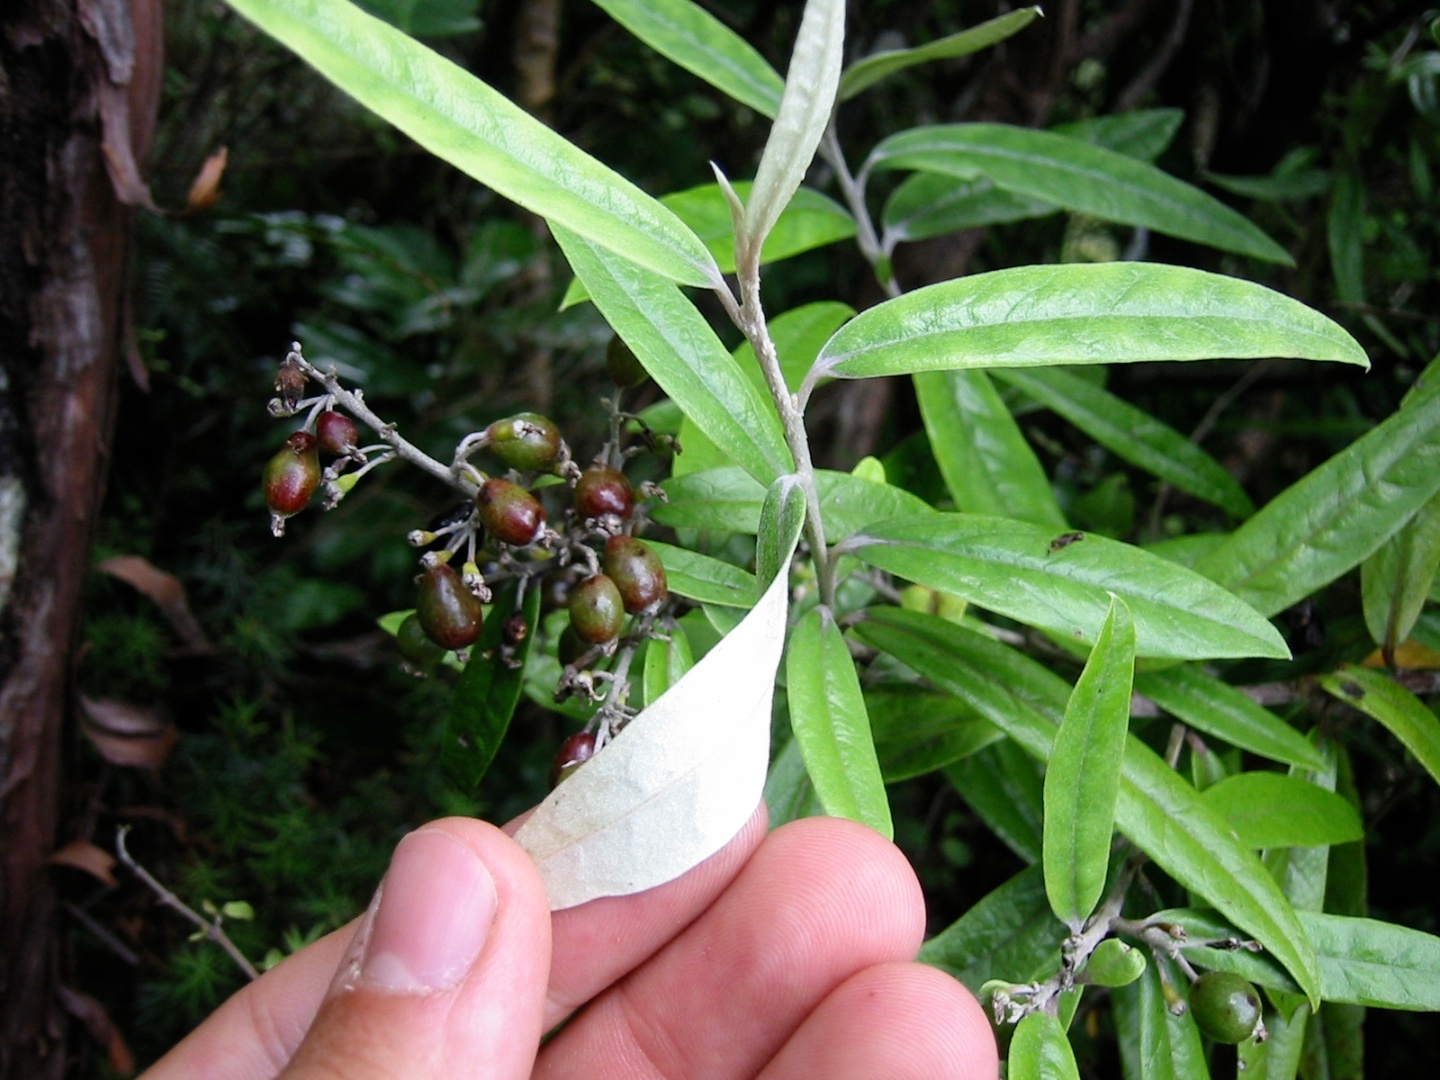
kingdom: Plantae
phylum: Tracheophyta
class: Magnoliopsida
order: Asterales
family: Argophyllaceae
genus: Corokia
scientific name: Corokia buddleioides
